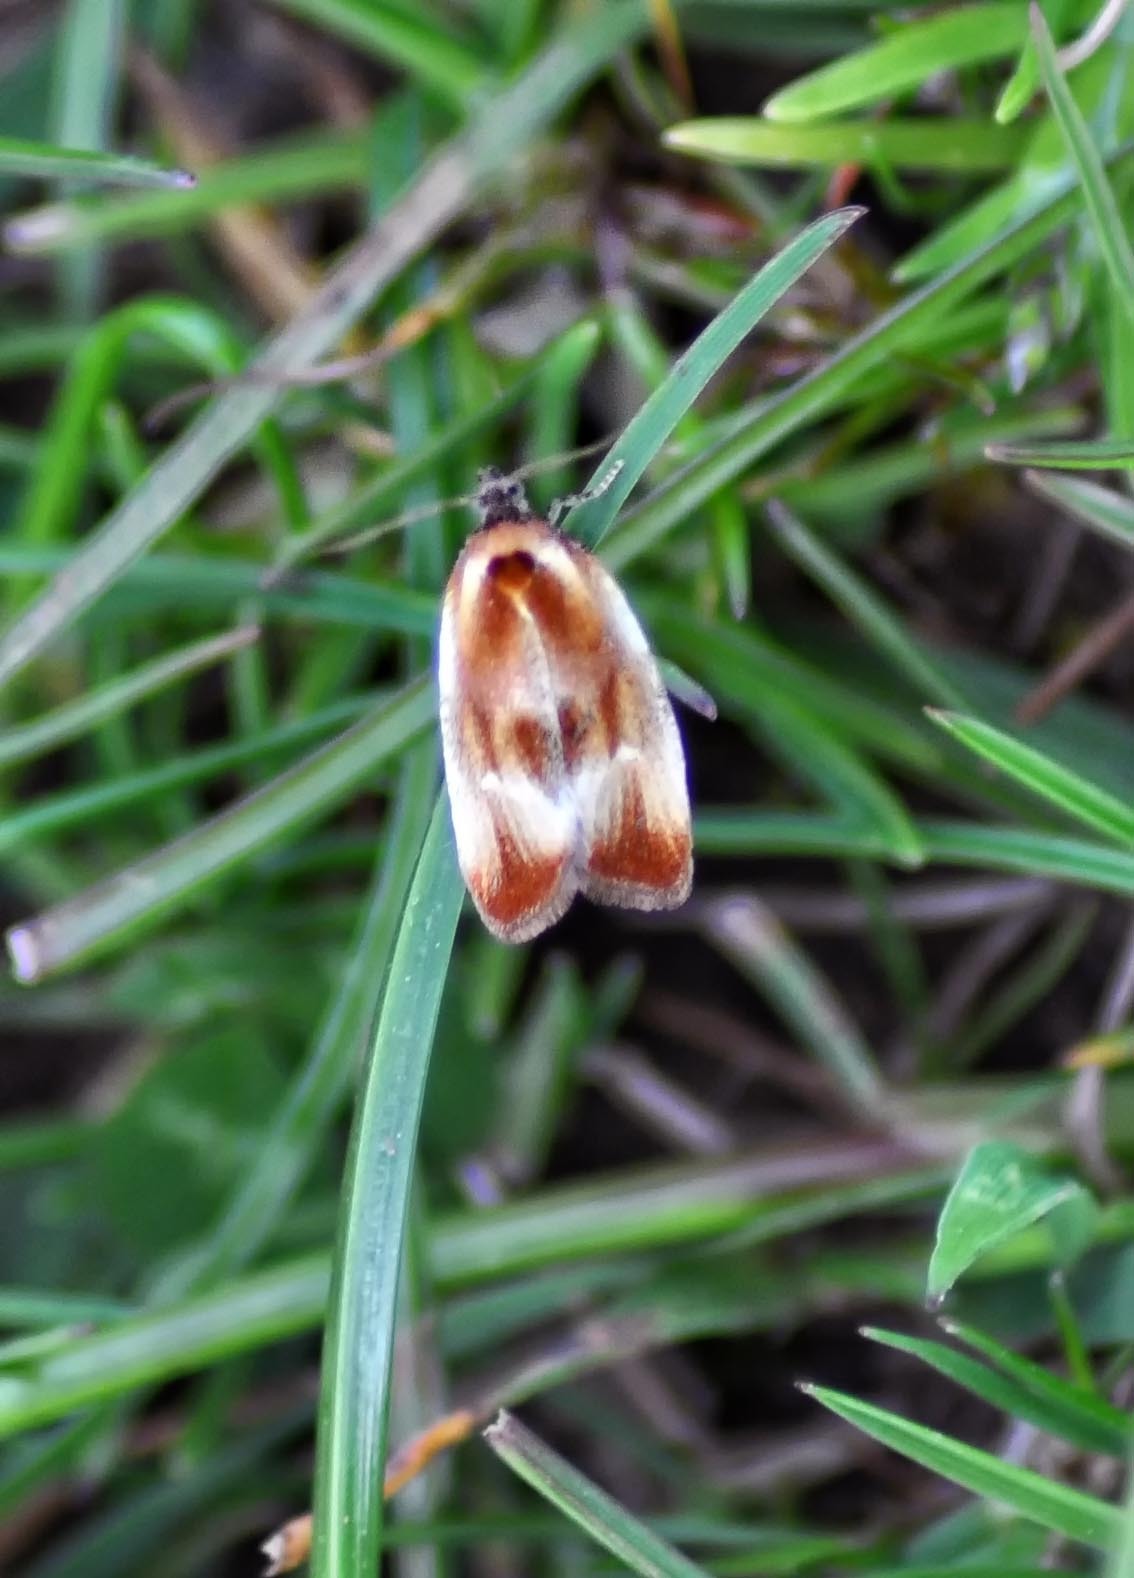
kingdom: Animalia
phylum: Arthropoda
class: Insecta
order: Lepidoptera
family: Tortricidae
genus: Eulia
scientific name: Eulia ministrana
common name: Brassy twist
